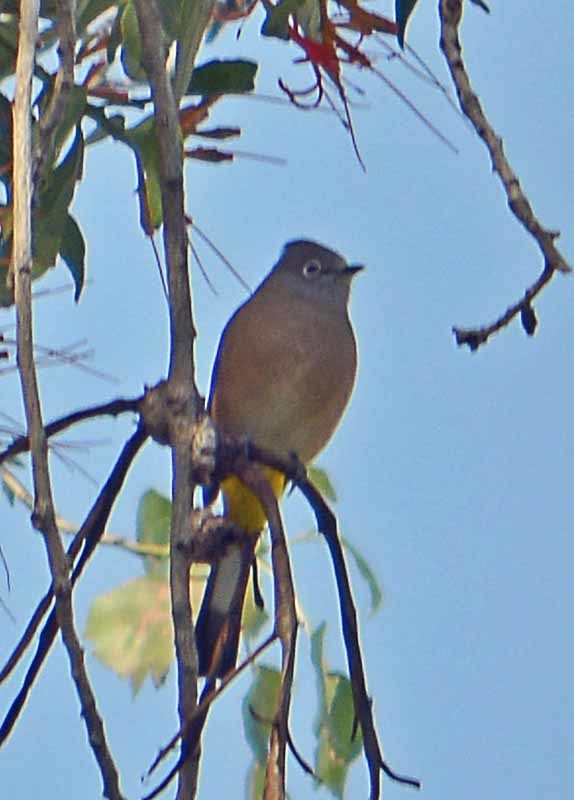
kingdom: Animalia
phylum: Chordata
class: Aves
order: Passeriformes
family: Ptilogonatidae
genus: Ptilogonys
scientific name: Ptilogonys cinereus
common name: Gray silky-flycatcher
